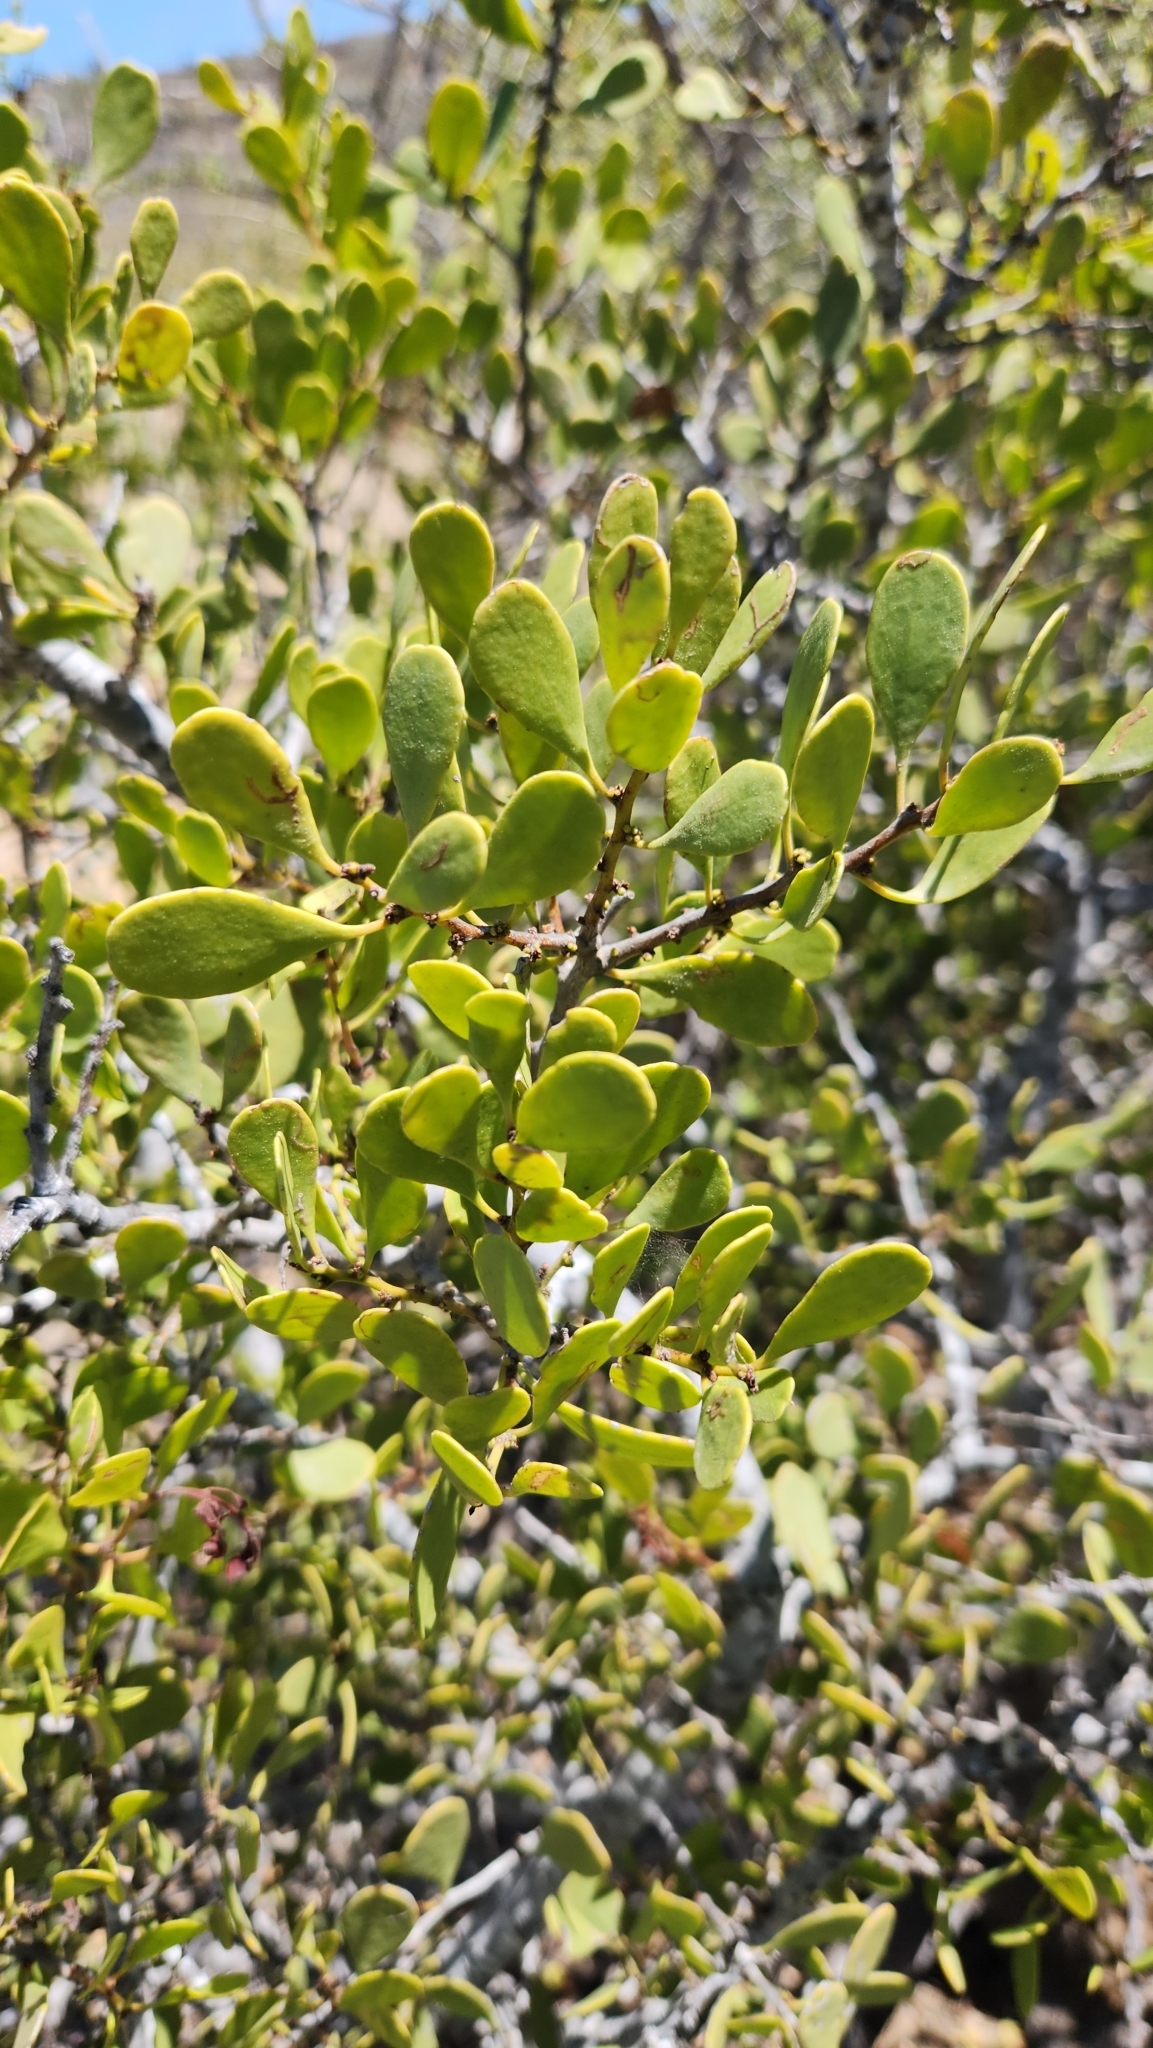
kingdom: Plantae
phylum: Tracheophyta
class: Magnoliopsida
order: Celastrales
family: Celastraceae
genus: Tricerma
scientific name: Tricerma phyllanthoides
